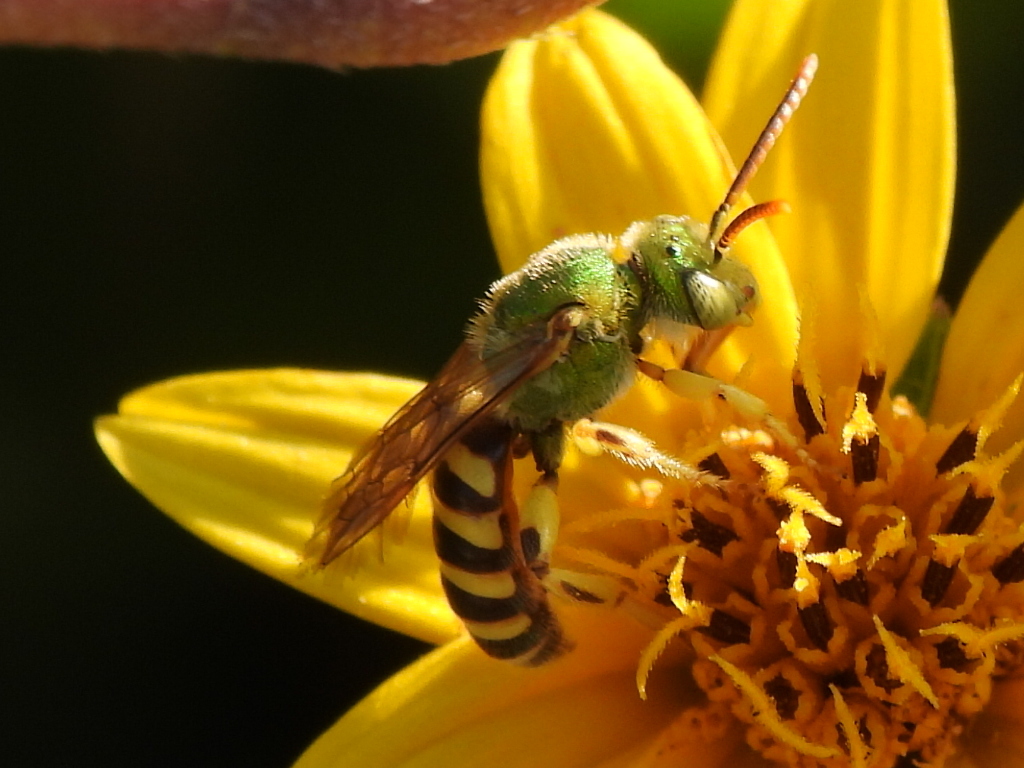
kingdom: Animalia
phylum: Arthropoda
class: Insecta
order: Hymenoptera
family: Halictidae
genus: Agapostemon
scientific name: Agapostemon splendens
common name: Brown-winged striped sweat bee
